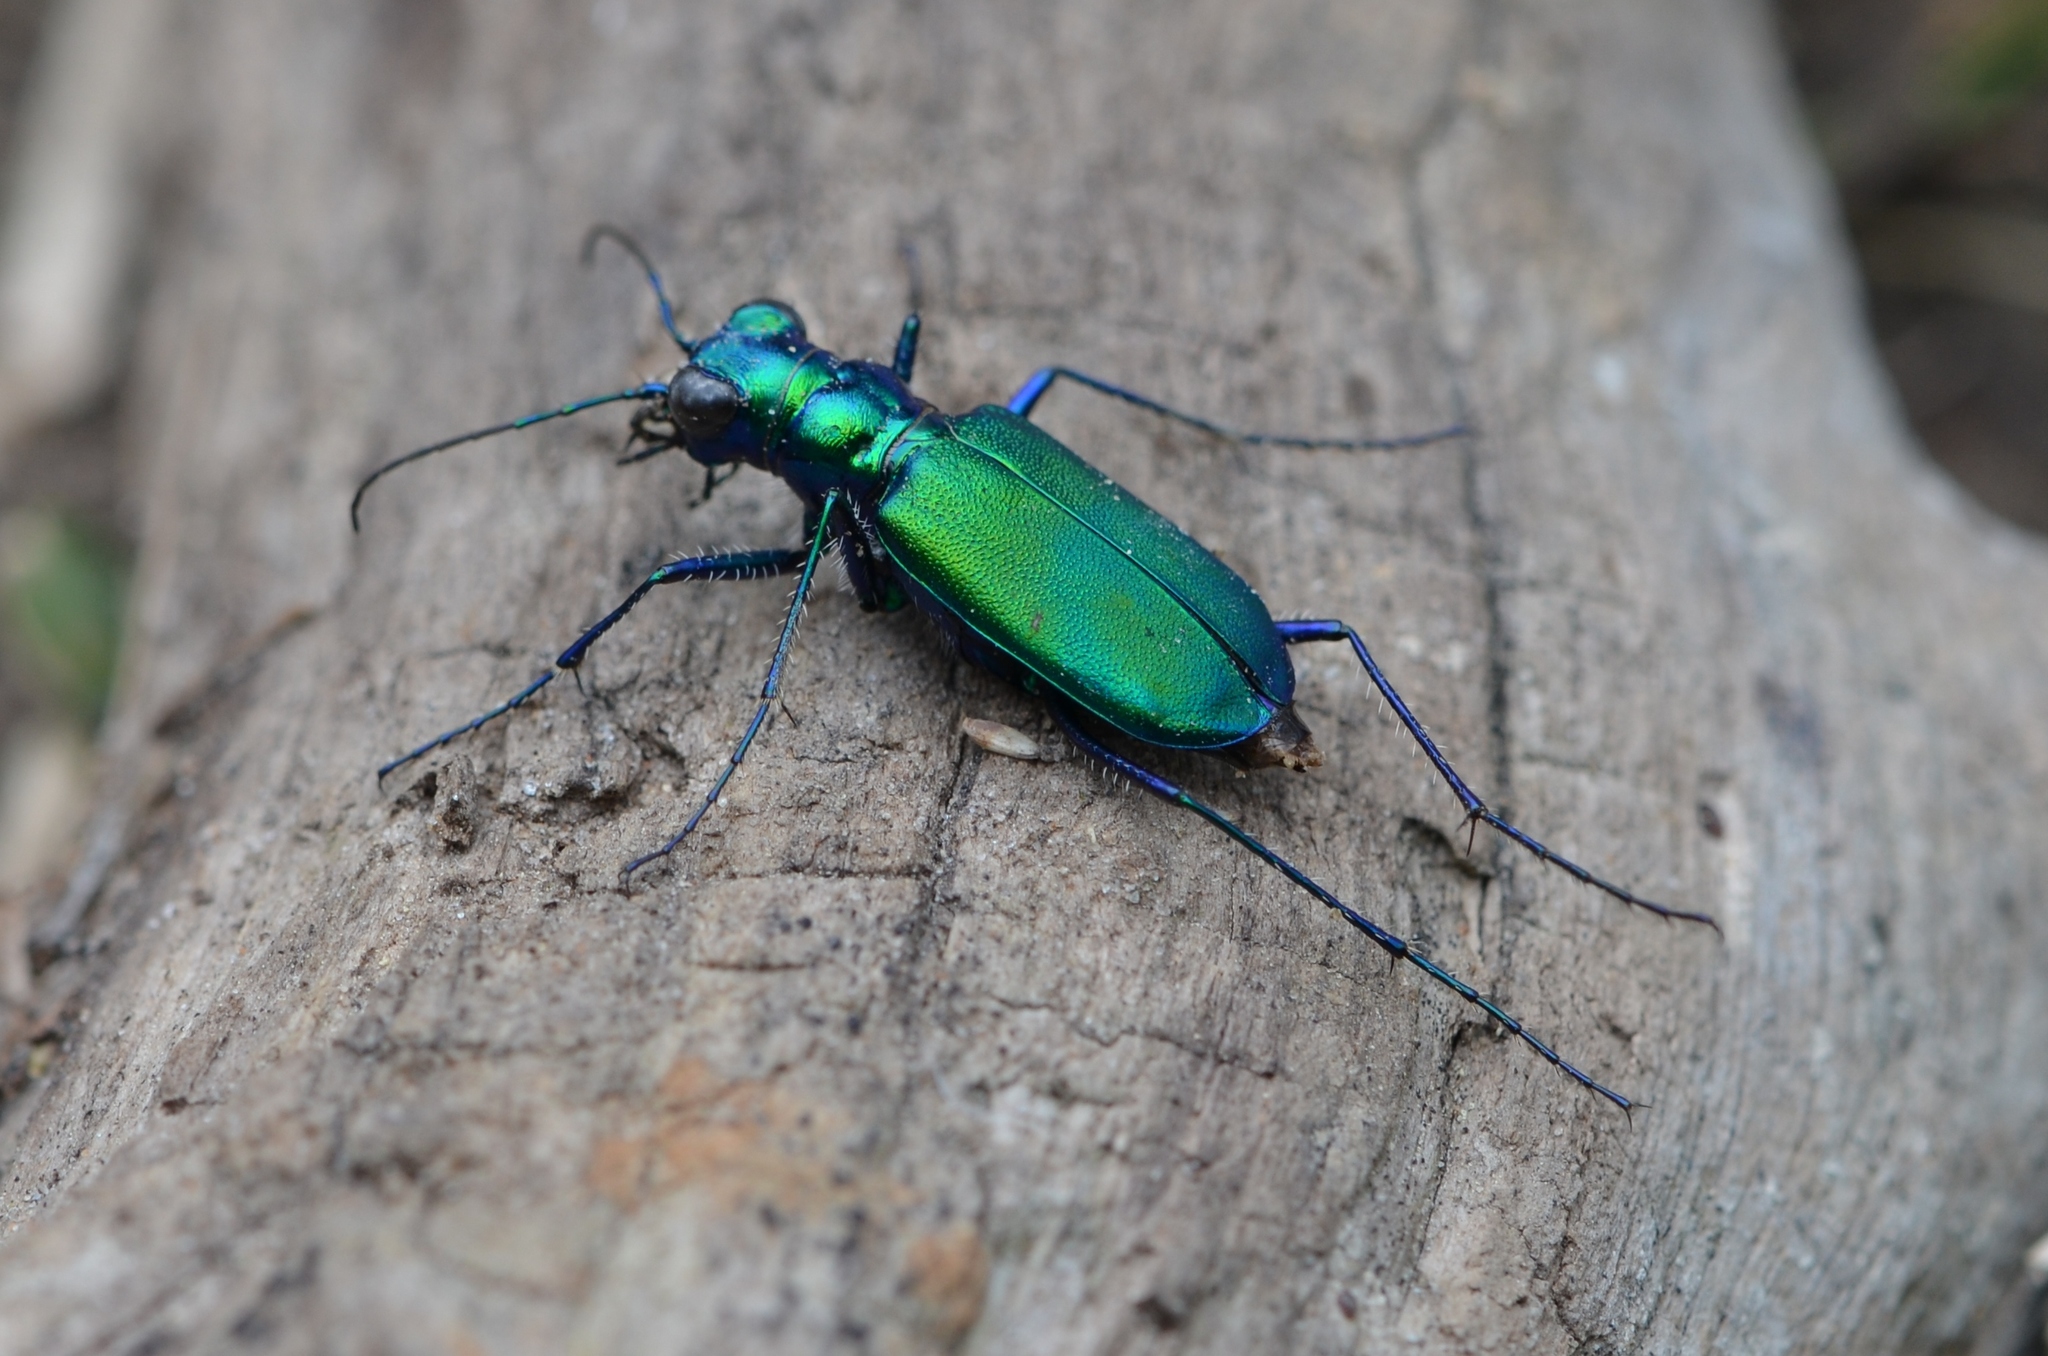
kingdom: Animalia
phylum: Arthropoda
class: Insecta
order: Coleoptera
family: Carabidae
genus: Cicindela
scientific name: Cicindela sexguttata
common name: Six-spotted tiger beetle
